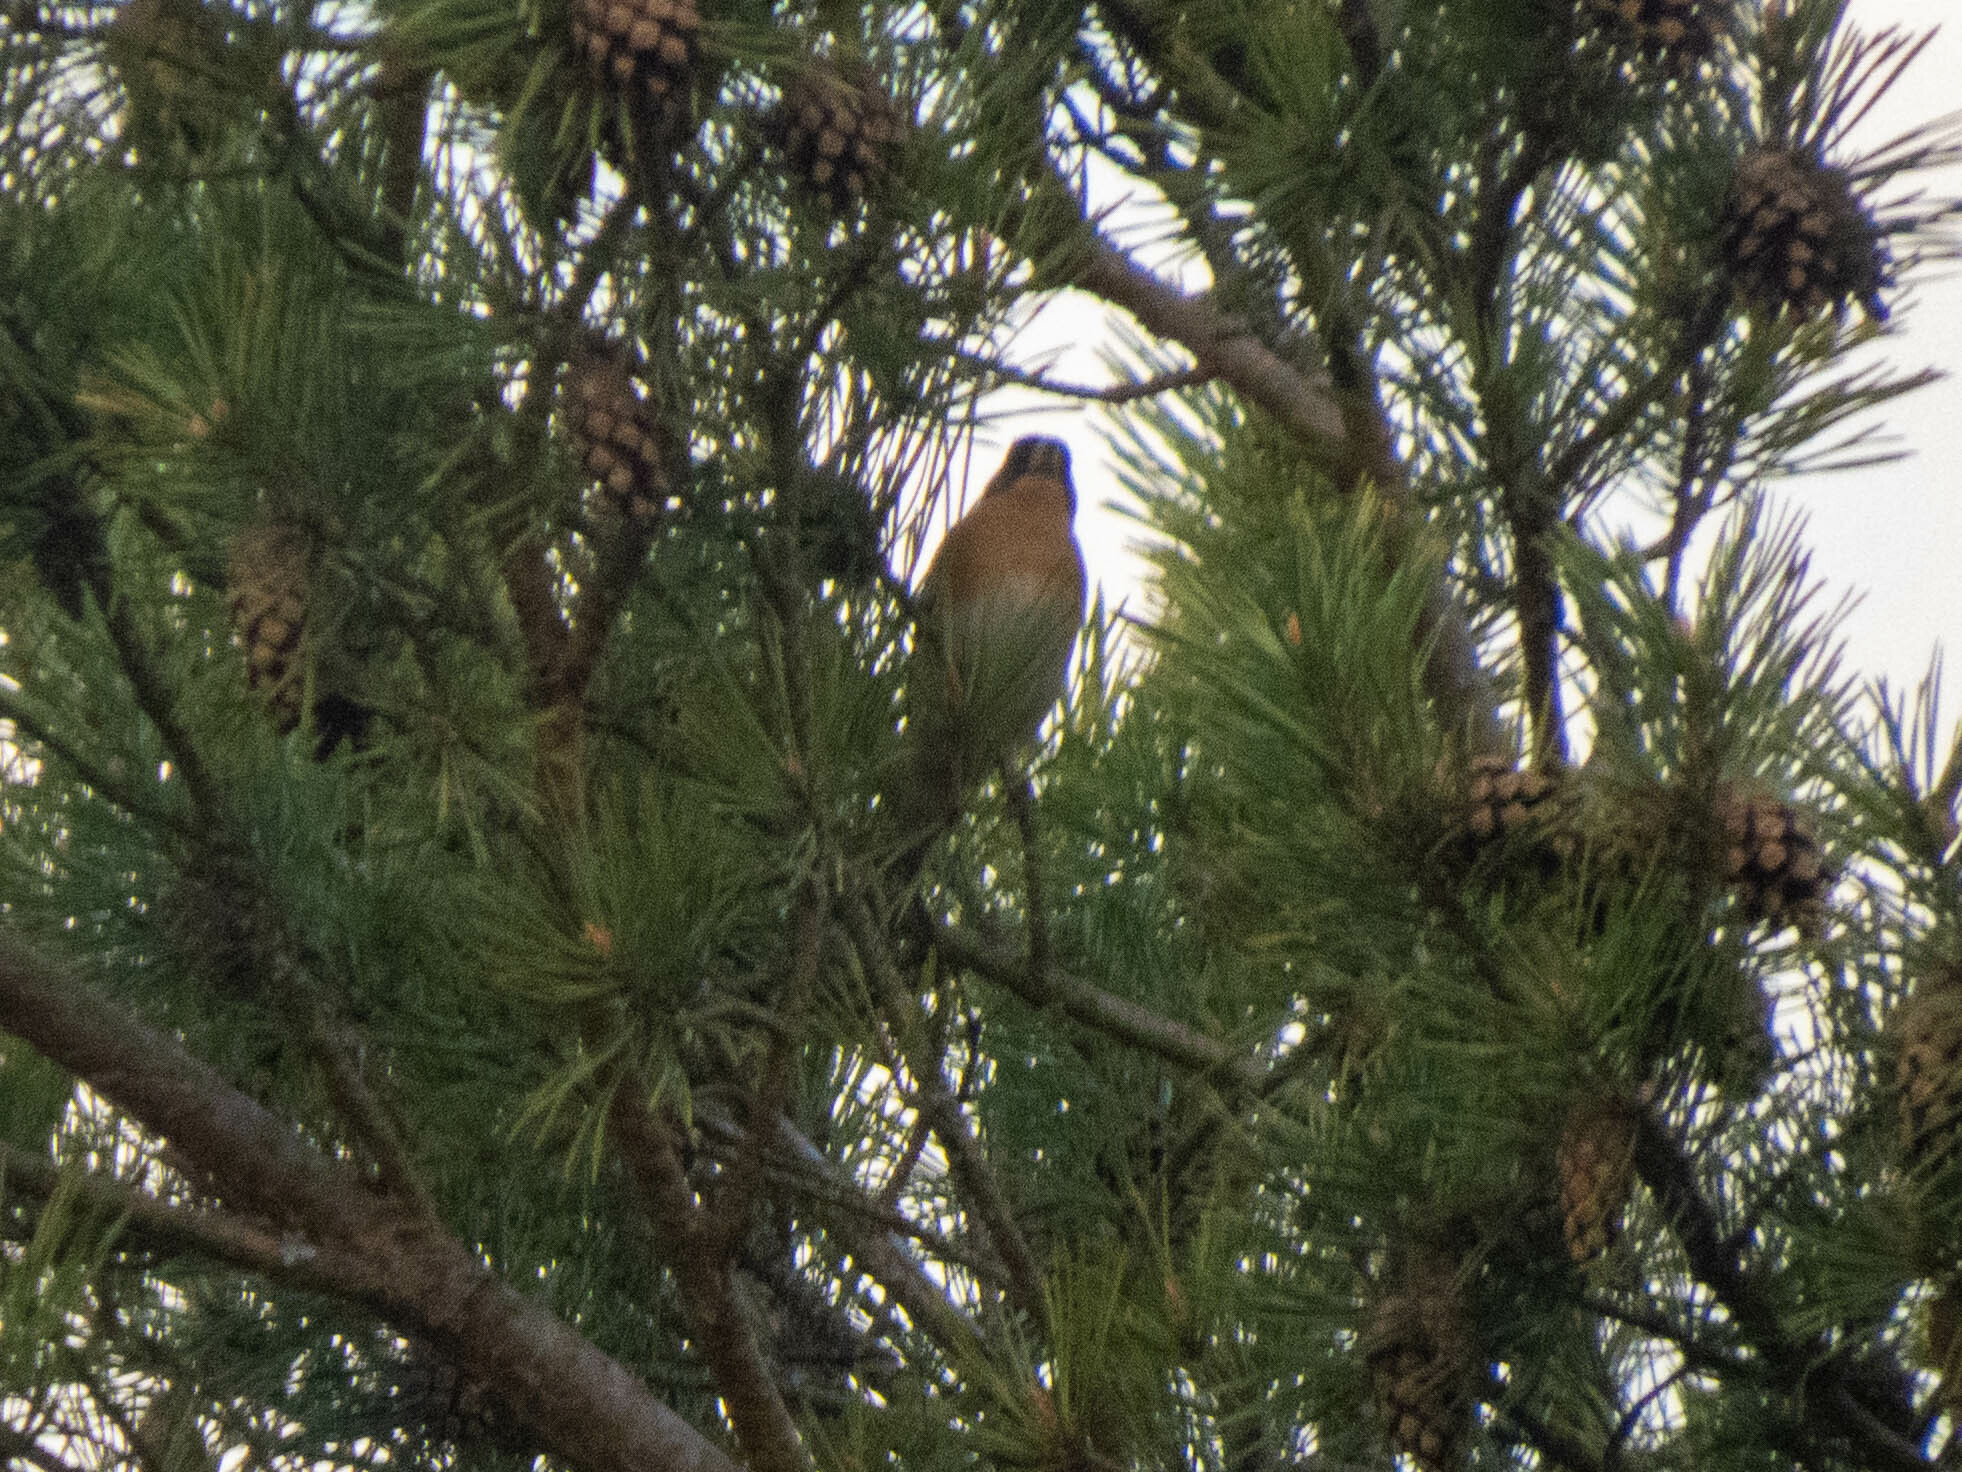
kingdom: Animalia
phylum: Chordata
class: Aves
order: Passeriformes
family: Fringillidae
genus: Fringilla
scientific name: Fringilla montifringilla
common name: Brambling
